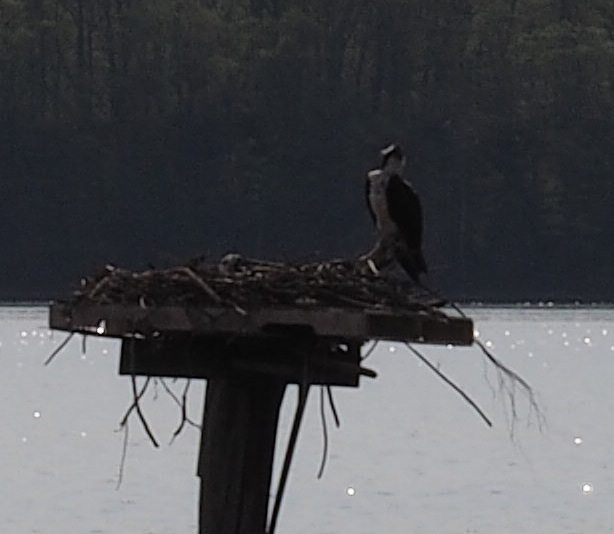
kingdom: Animalia
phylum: Chordata
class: Aves
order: Accipitriformes
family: Pandionidae
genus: Pandion
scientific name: Pandion haliaetus
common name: Osprey
